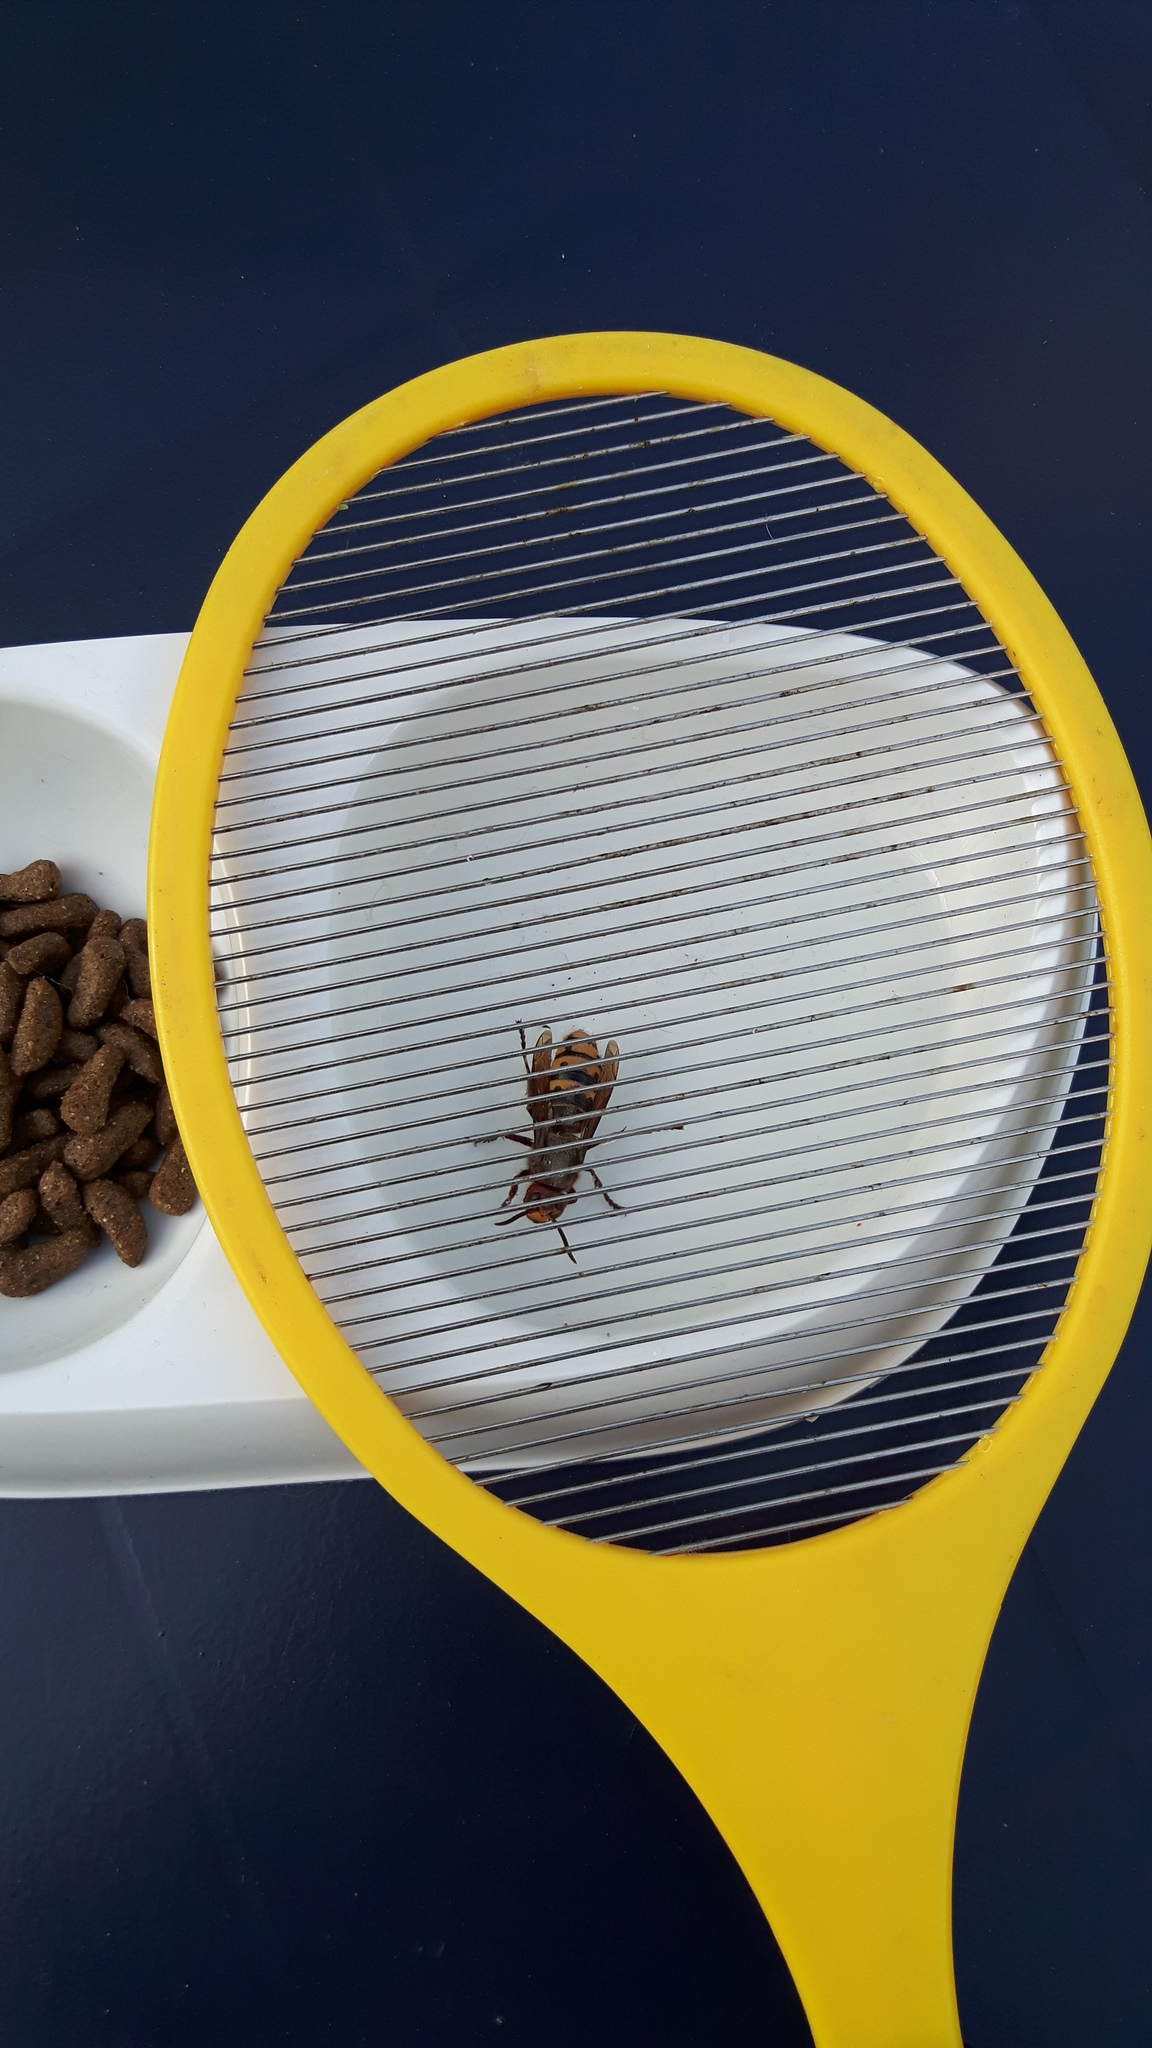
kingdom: Animalia
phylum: Arthropoda
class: Insecta
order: Hymenoptera
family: Vespidae
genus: Vespa
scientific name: Vespa crabro
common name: Hornet
